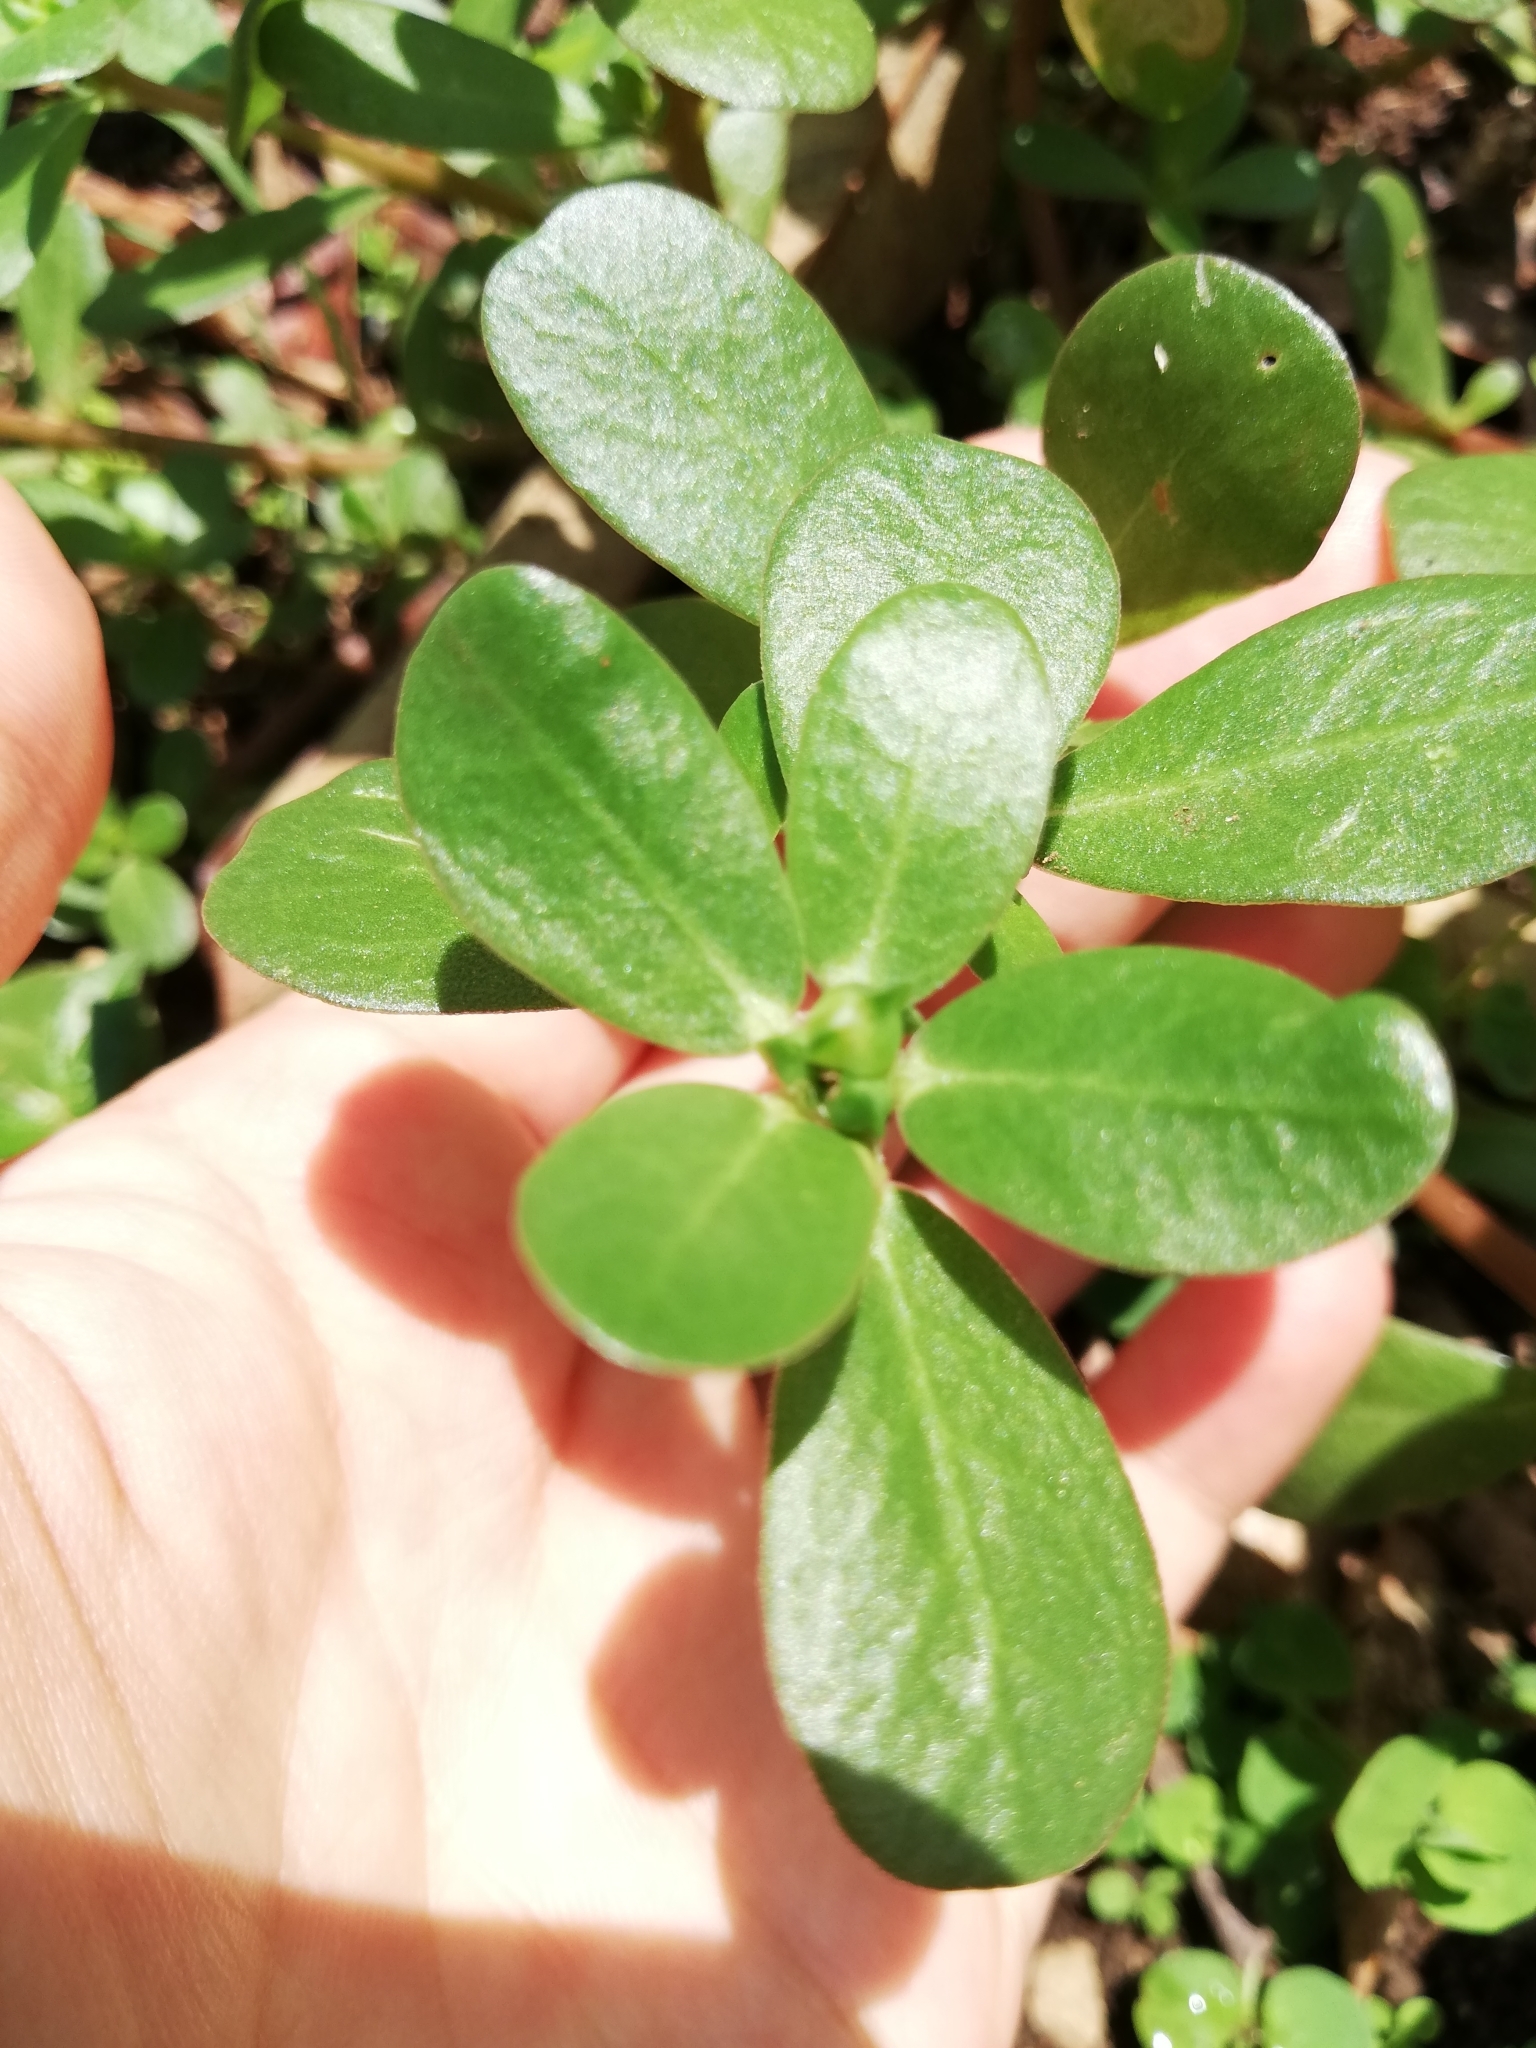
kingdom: Plantae
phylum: Tracheophyta
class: Magnoliopsida
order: Caryophyllales
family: Portulacaceae
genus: Portulaca
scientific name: Portulaca oleracea
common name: Common purslane
